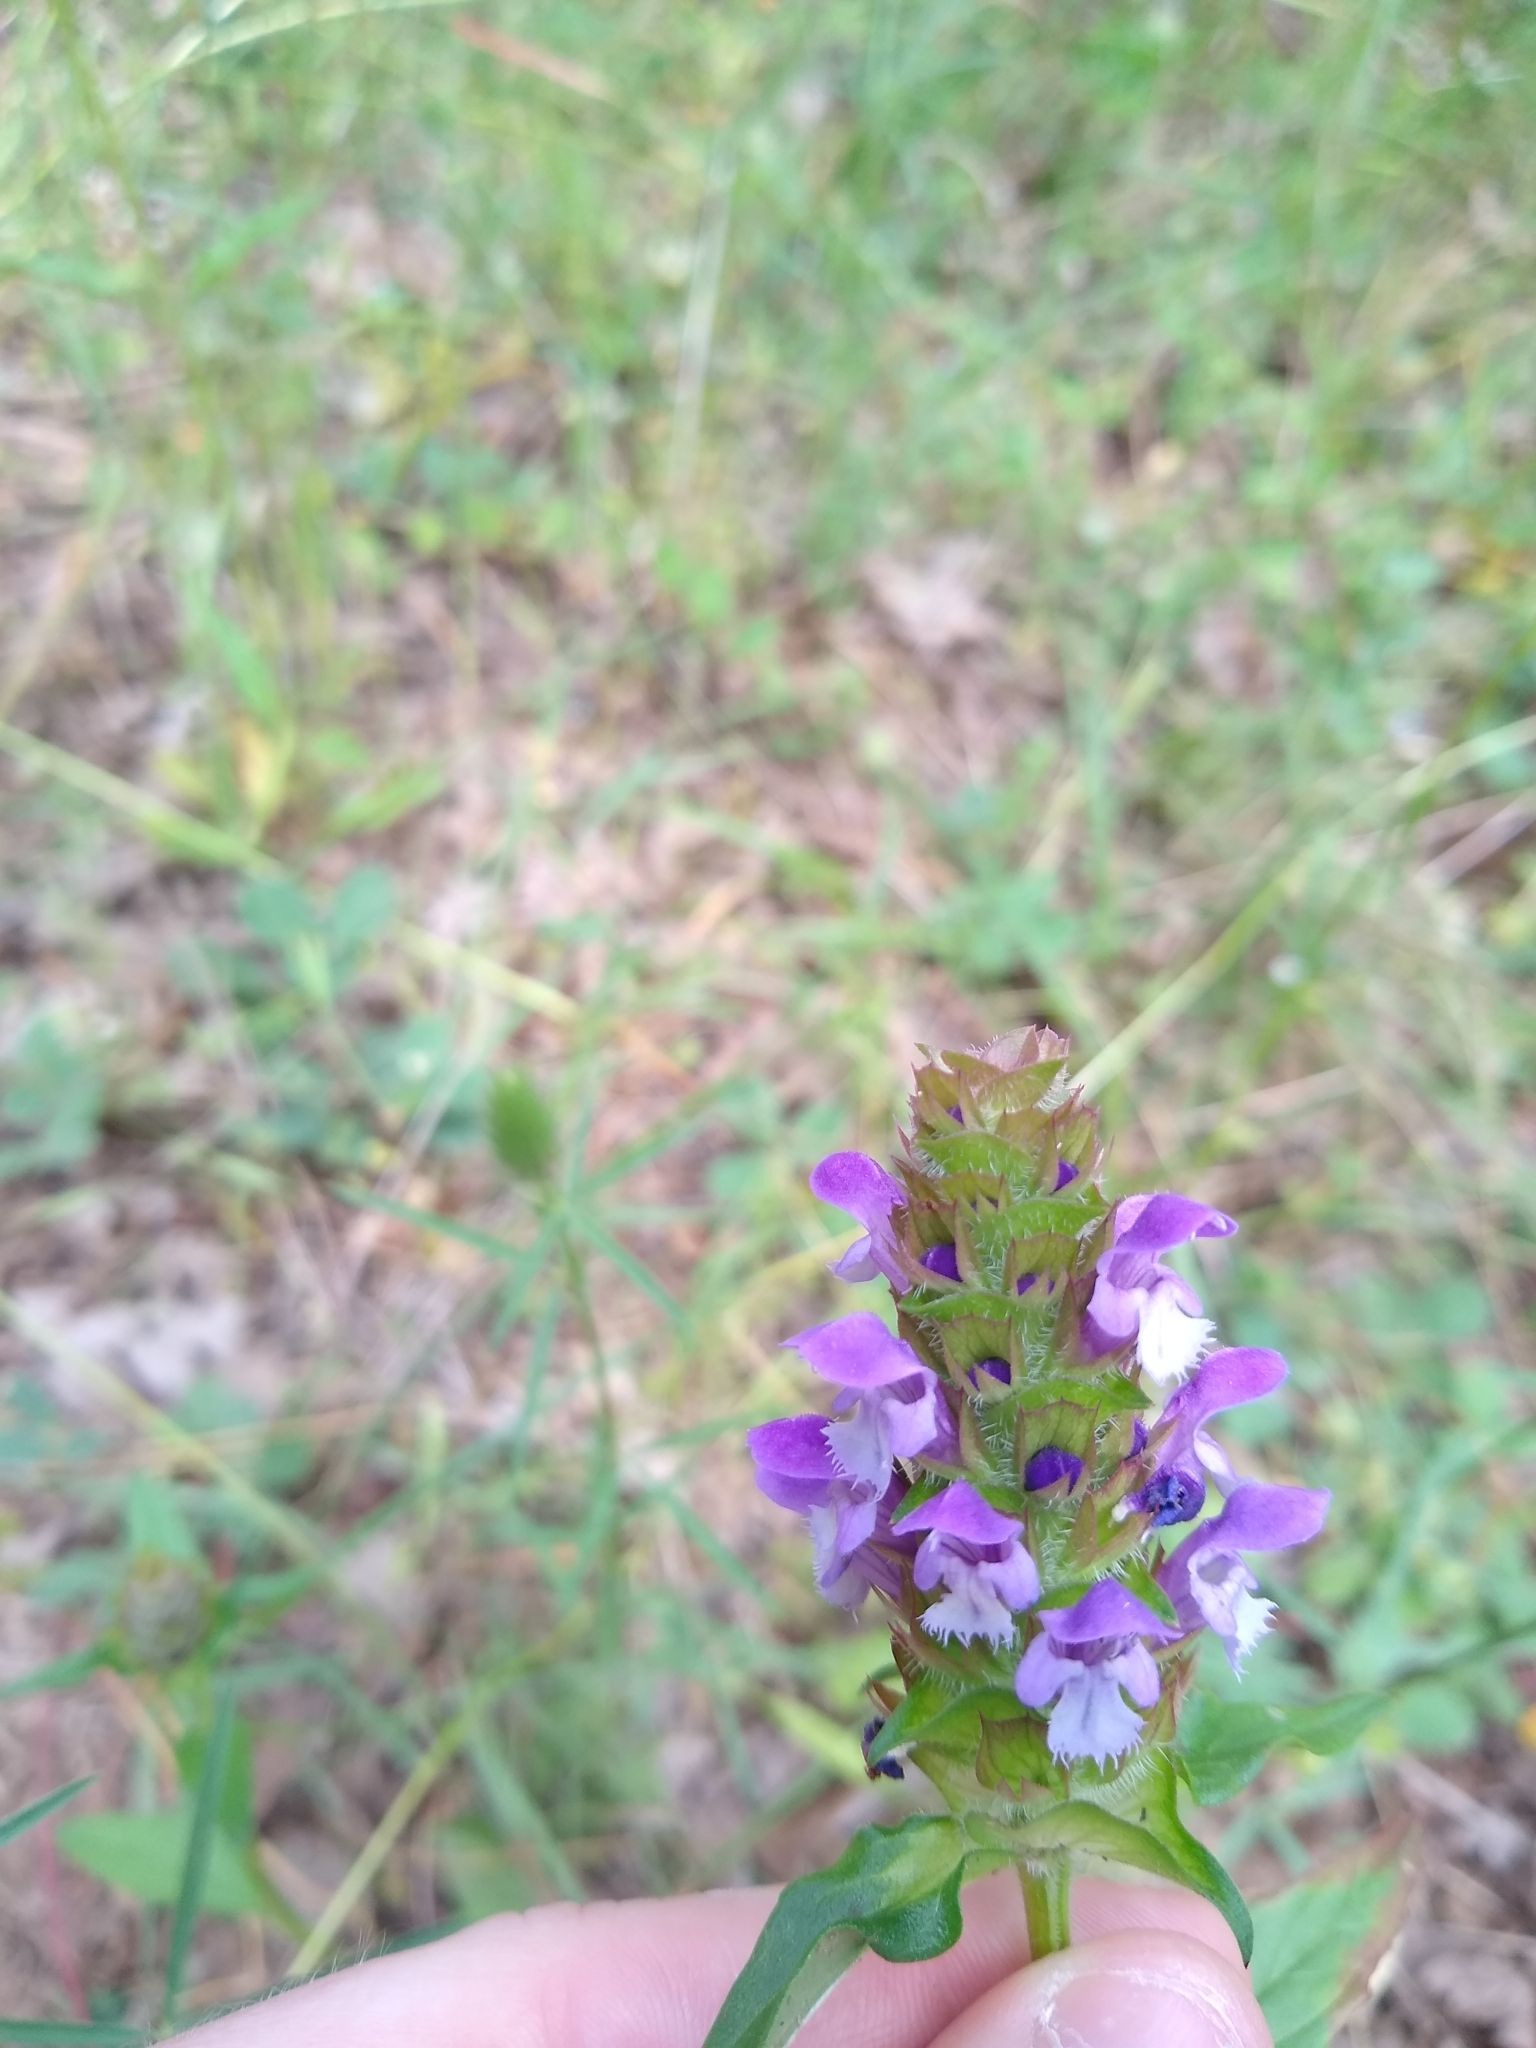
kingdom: Plantae
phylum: Tracheophyta
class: Magnoliopsida
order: Lamiales
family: Lamiaceae
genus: Prunella
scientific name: Prunella vulgaris
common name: Heal-all
